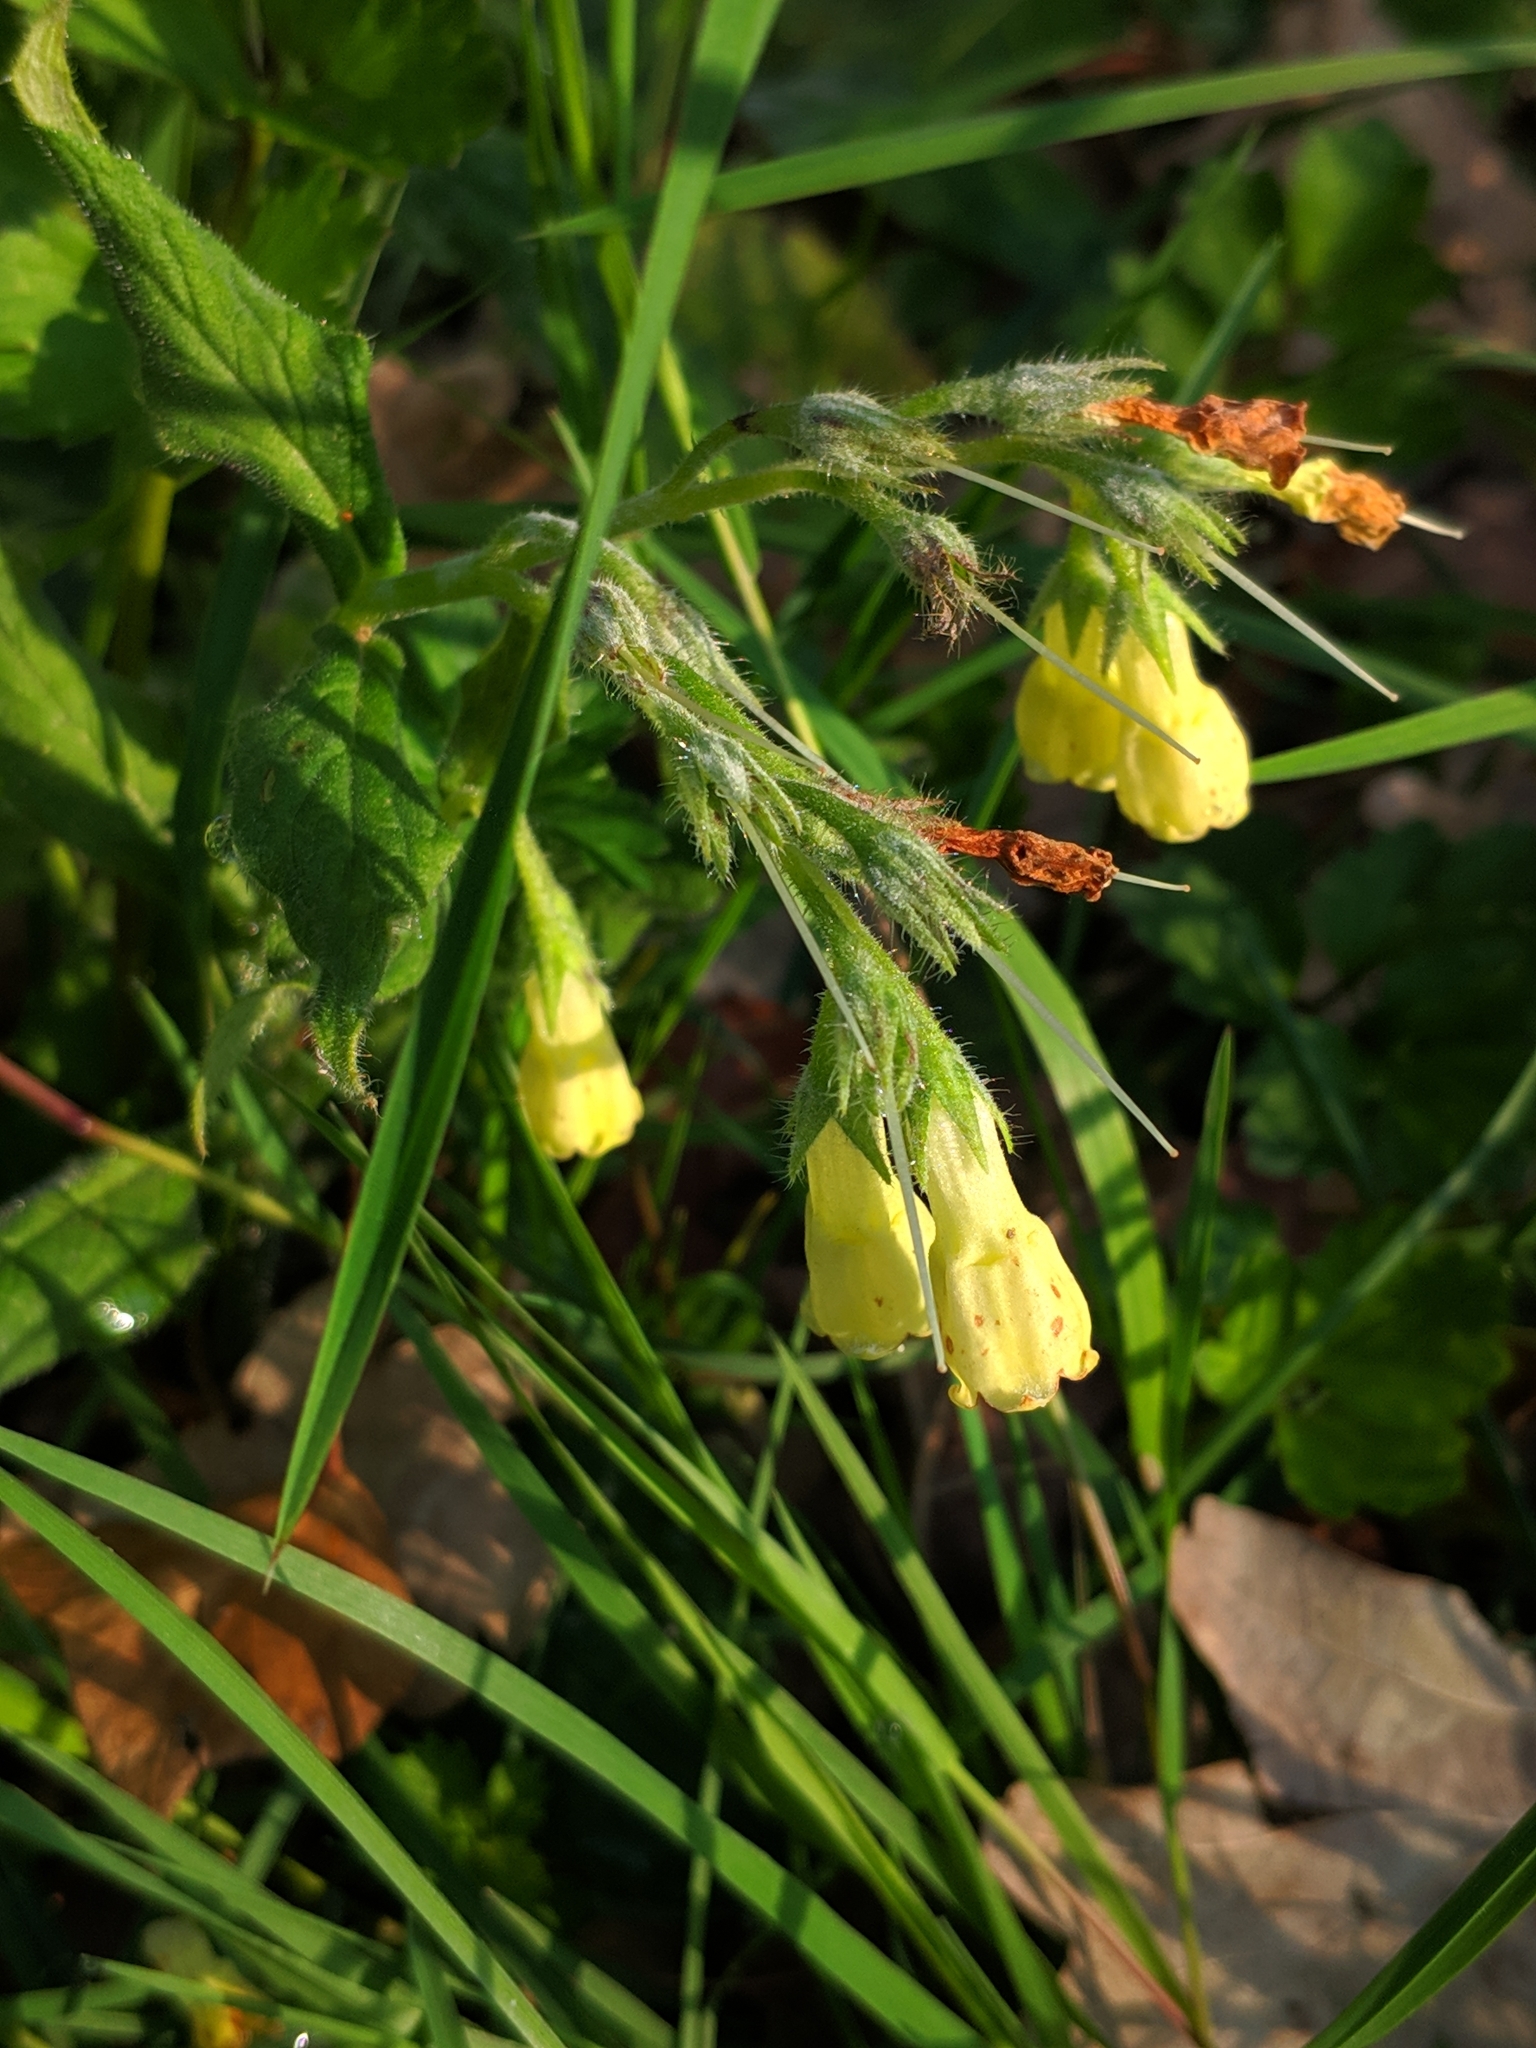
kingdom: Plantae
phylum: Tracheophyta
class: Magnoliopsida
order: Boraginales
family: Boraginaceae
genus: Symphytum
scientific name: Symphytum tuberosum
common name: Tuberous comfrey
